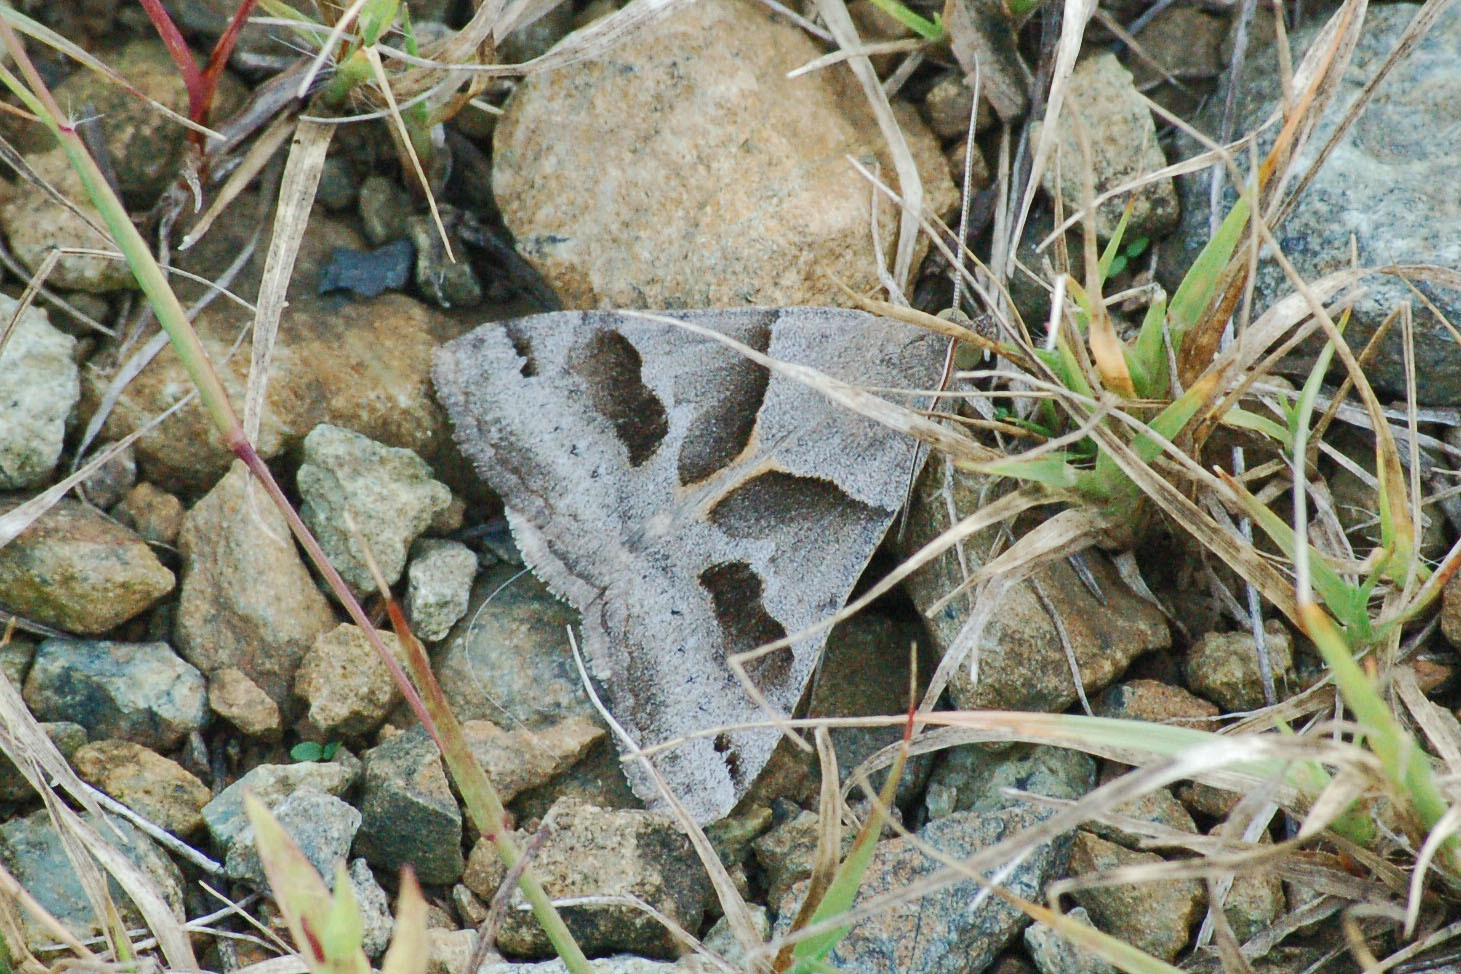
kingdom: Animalia
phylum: Arthropoda
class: Insecta
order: Lepidoptera
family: Erebidae
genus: Caenurgina
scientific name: Caenurgina erechtea
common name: Forage looper moth
